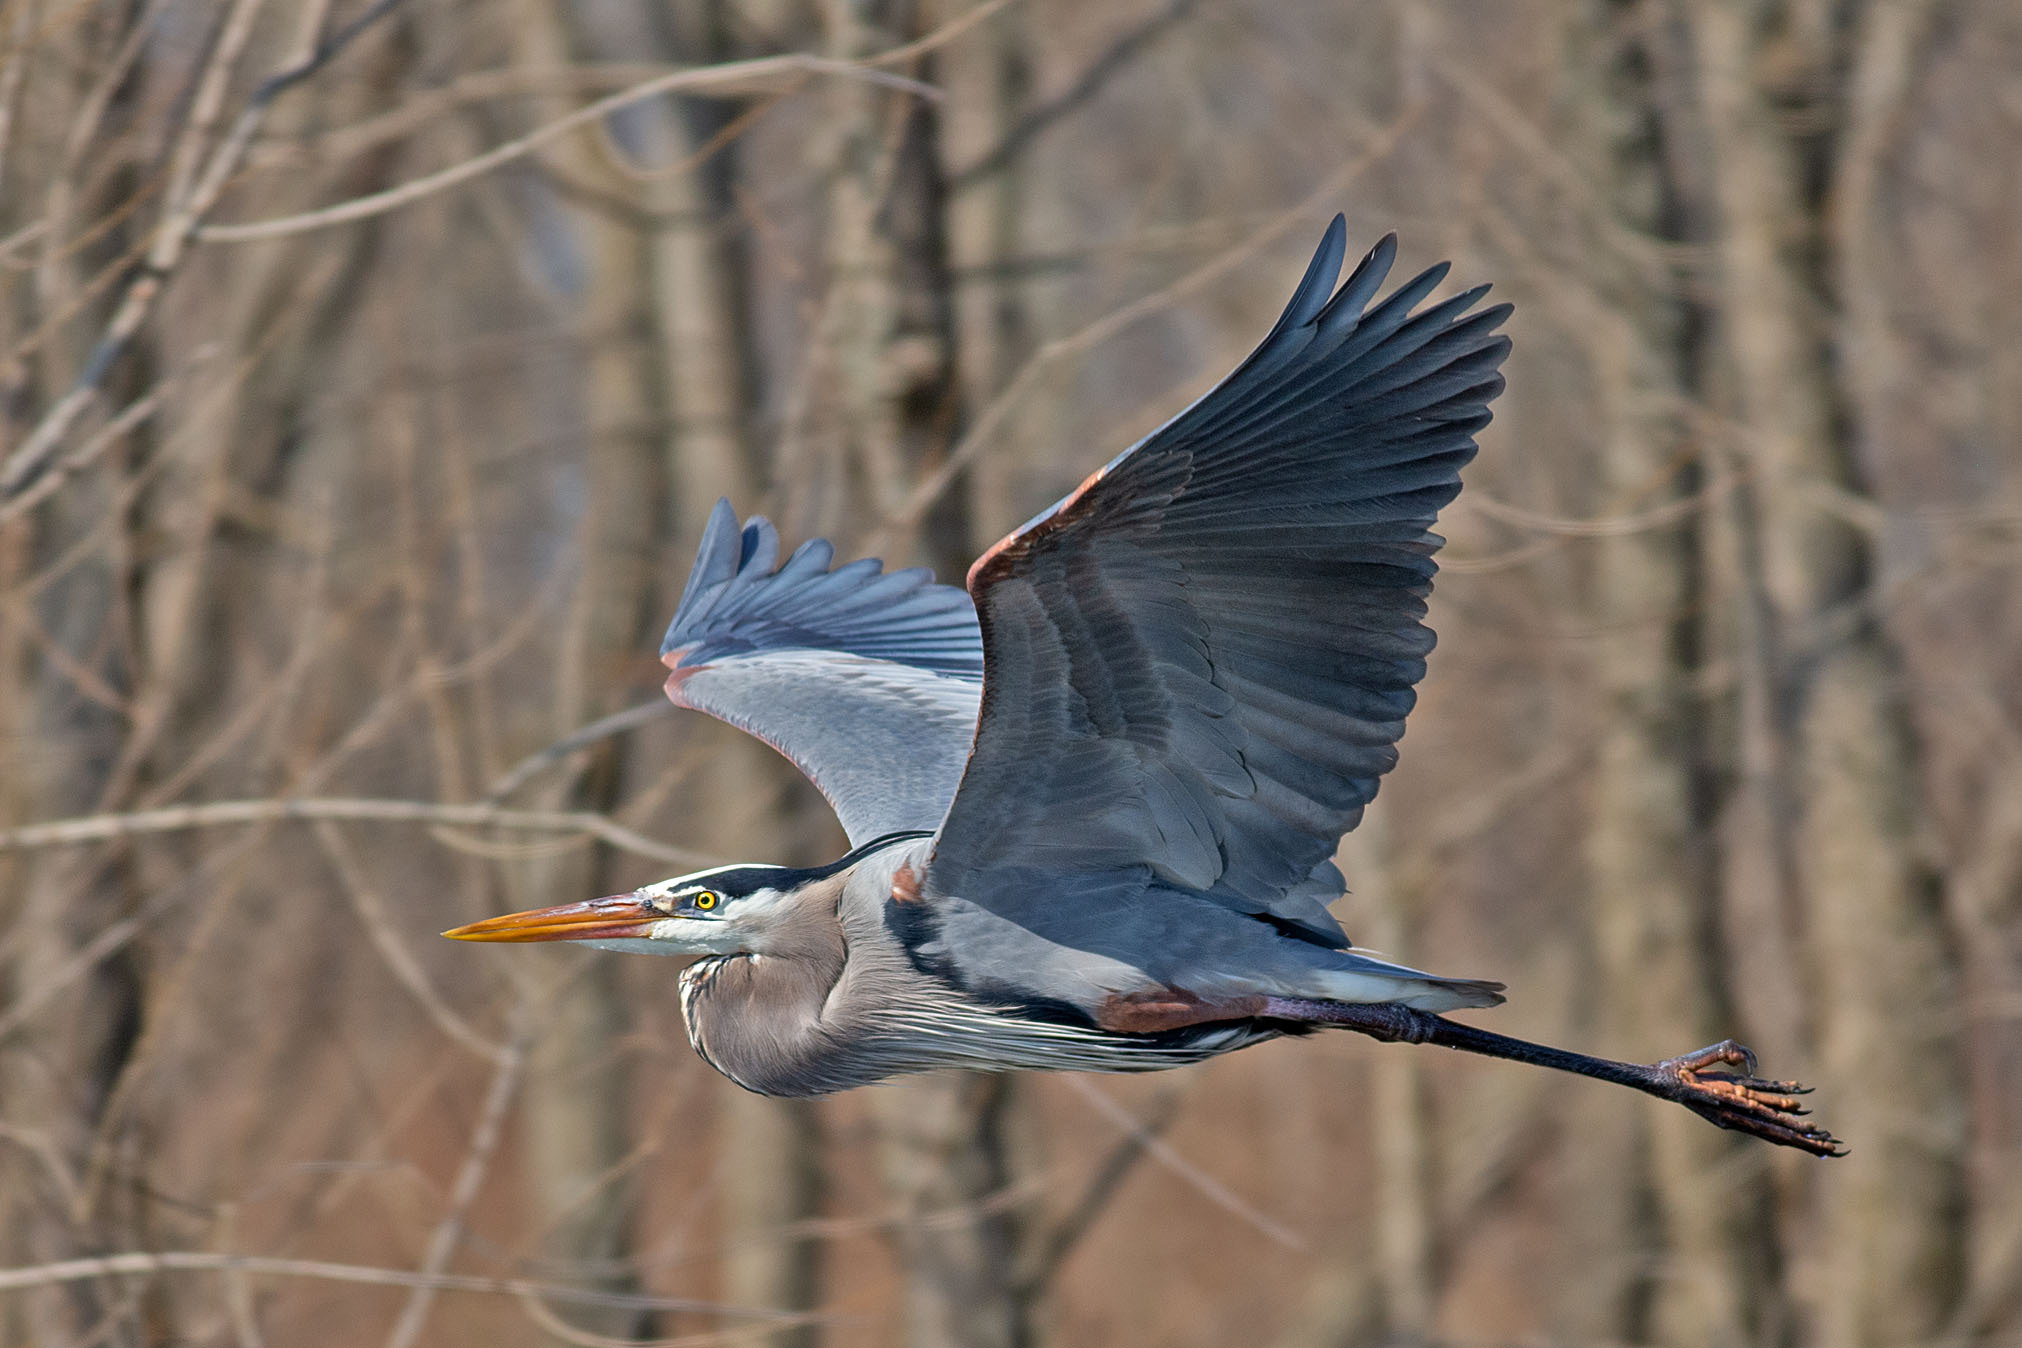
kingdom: Animalia
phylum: Chordata
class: Aves
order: Pelecaniformes
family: Ardeidae
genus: Ardea
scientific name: Ardea herodias
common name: Great blue heron
